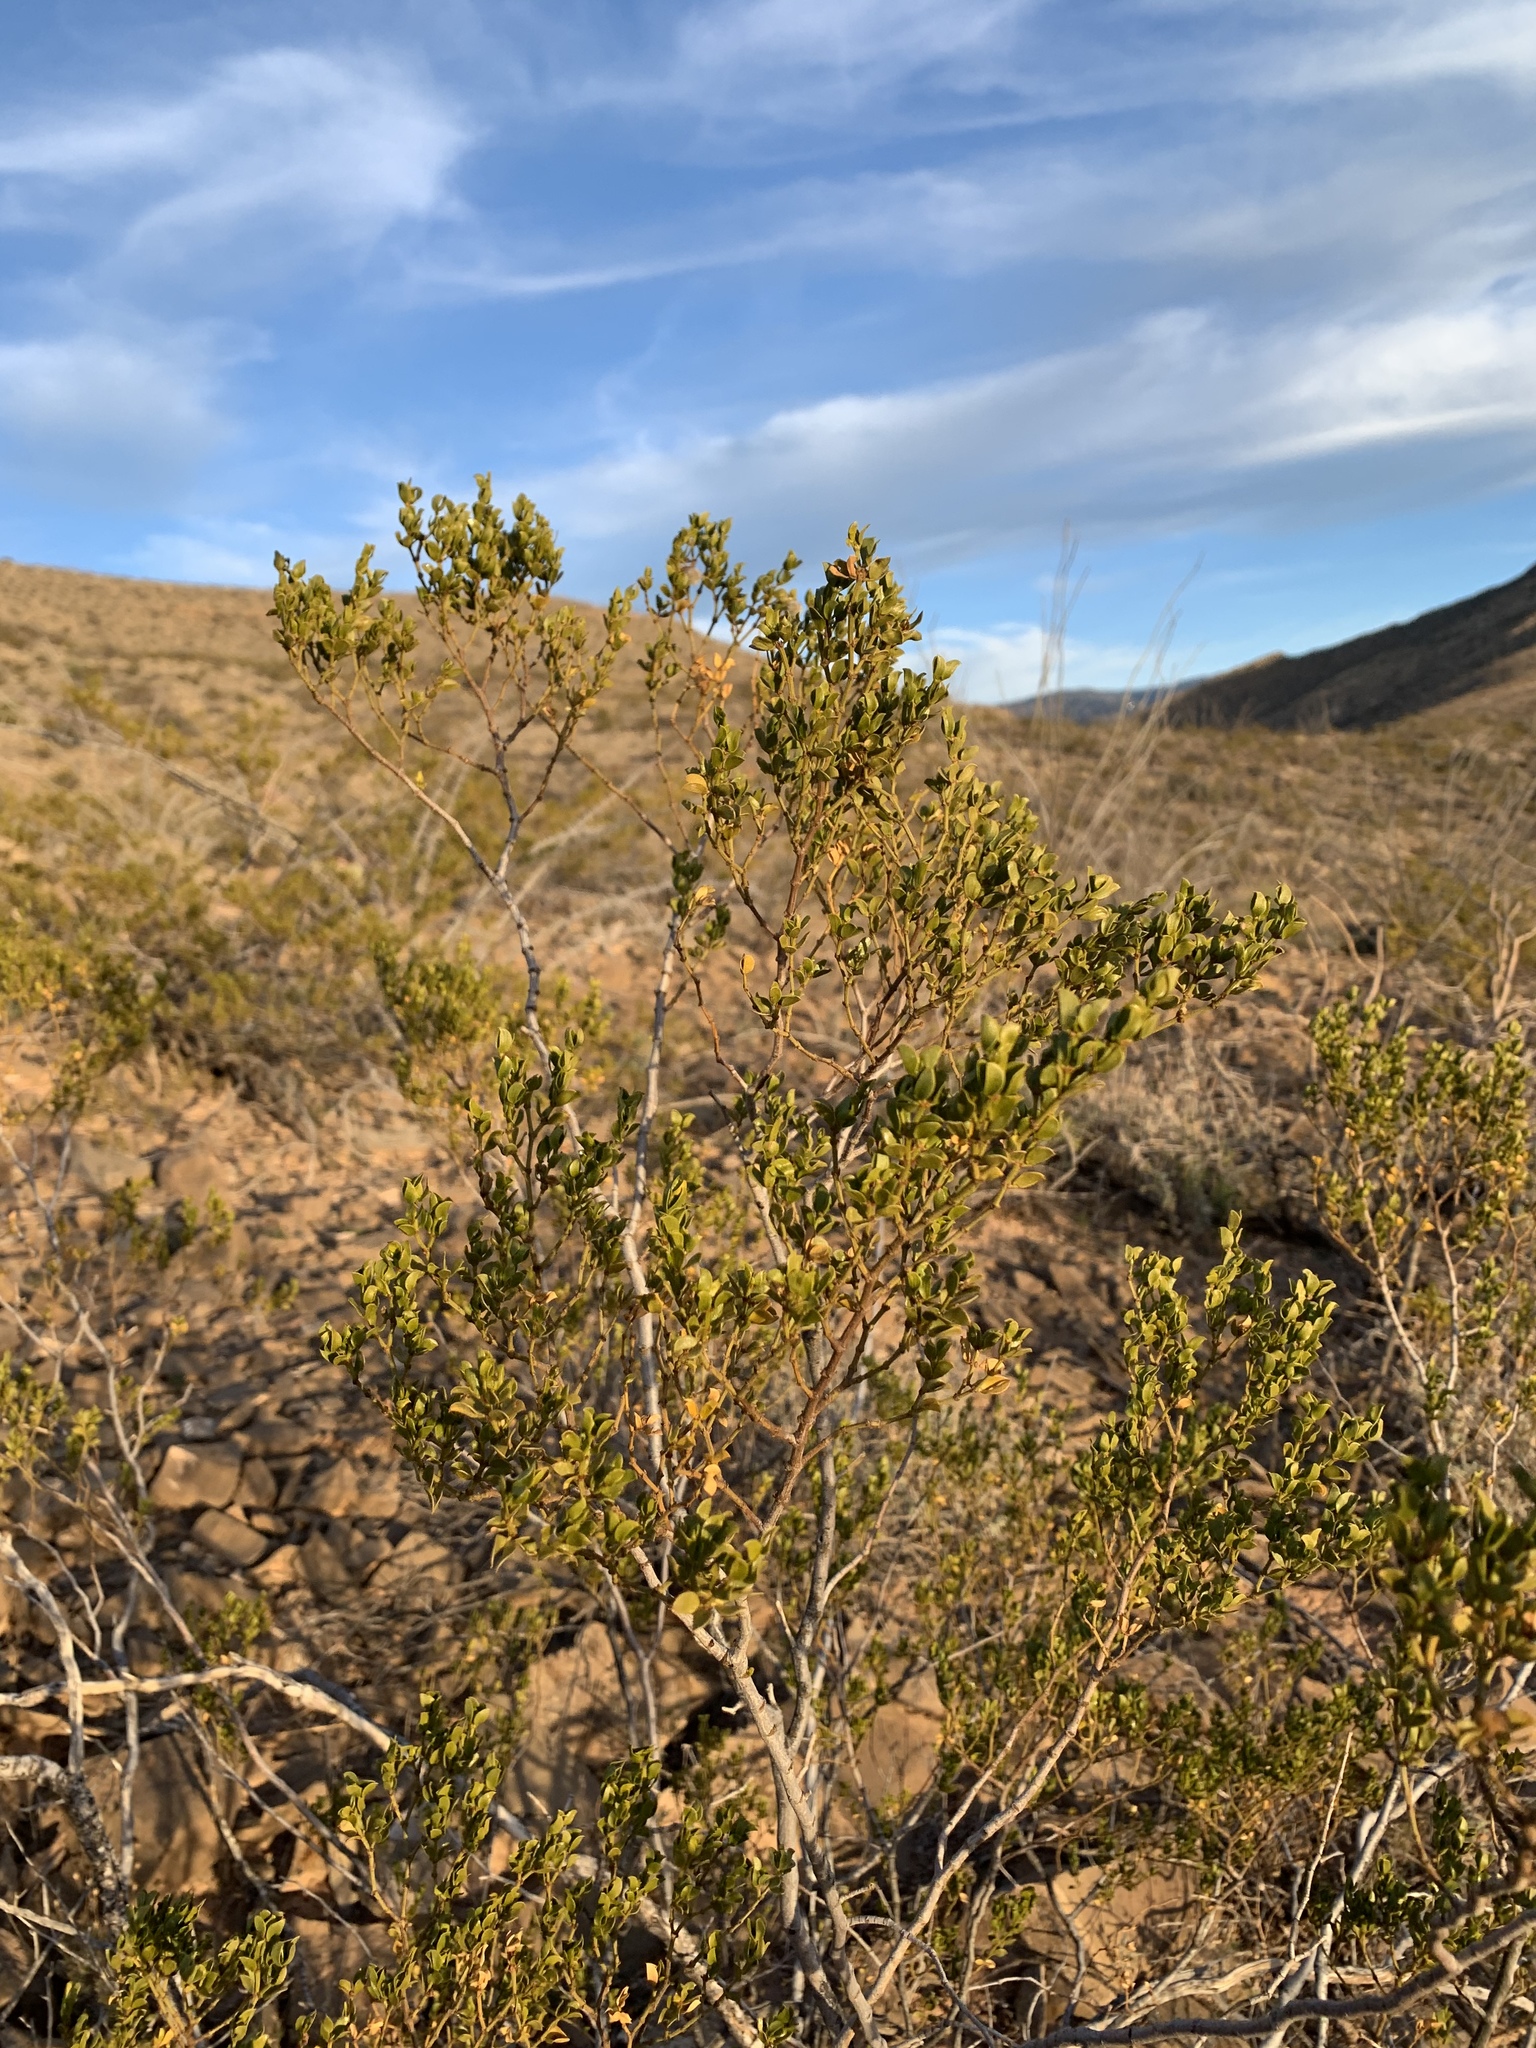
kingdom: Plantae
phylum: Tracheophyta
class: Magnoliopsida
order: Zygophyllales
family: Zygophyllaceae
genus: Larrea
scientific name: Larrea tridentata
